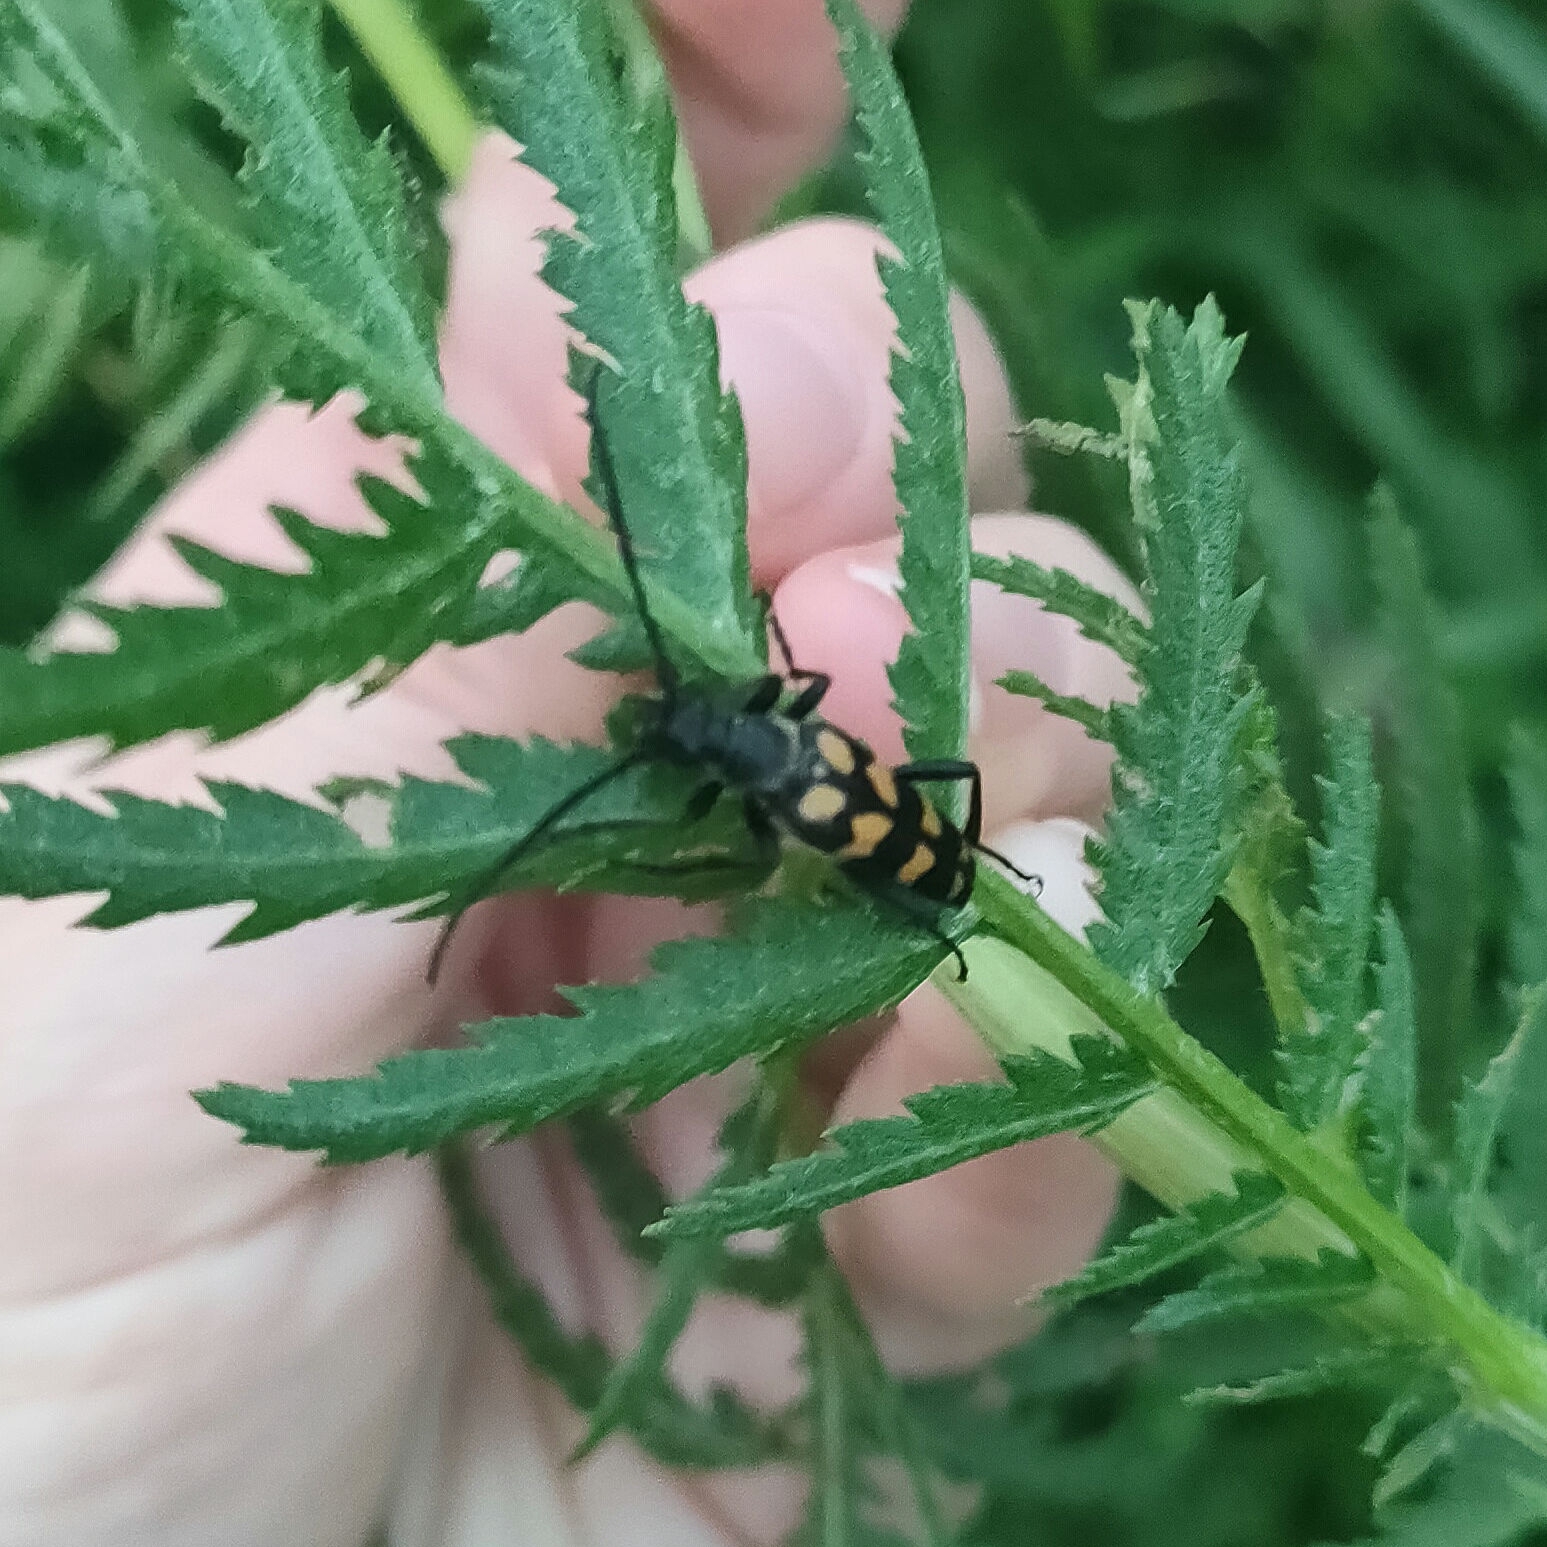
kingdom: Animalia
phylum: Arthropoda
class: Insecta
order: Coleoptera
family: Cerambycidae
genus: Leptura
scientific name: Leptura quadrifasciata
